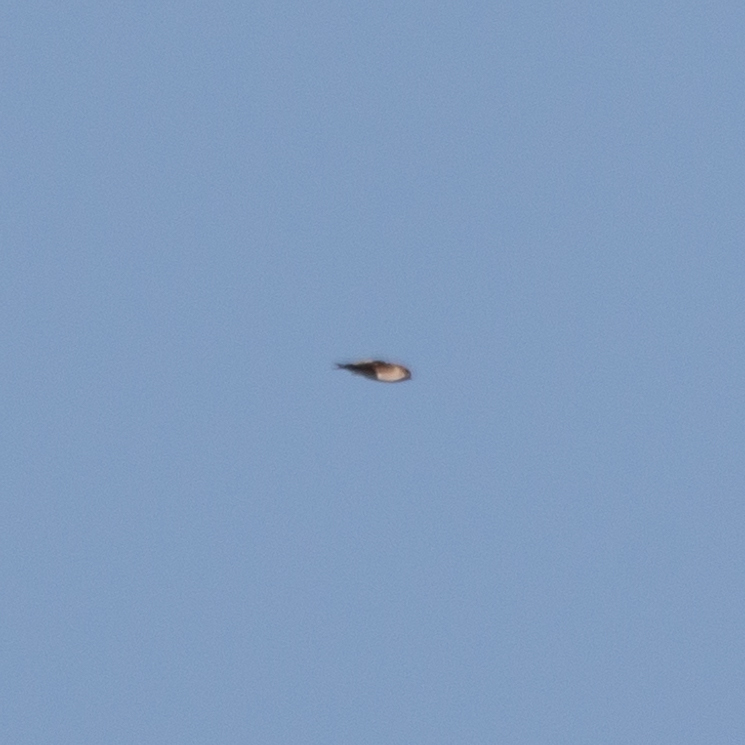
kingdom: Animalia
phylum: Chordata
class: Aves
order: Passeriformes
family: Hirundinidae
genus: Delichon
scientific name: Delichon urbicum
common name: Common house martin
